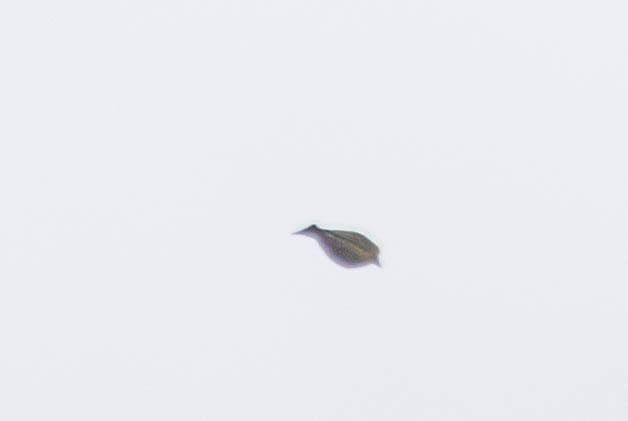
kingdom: Animalia
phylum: Chordata
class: Aves
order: Passeriformes
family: Fringillidae
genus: Loxia
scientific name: Loxia curvirostra
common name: Red crossbill
